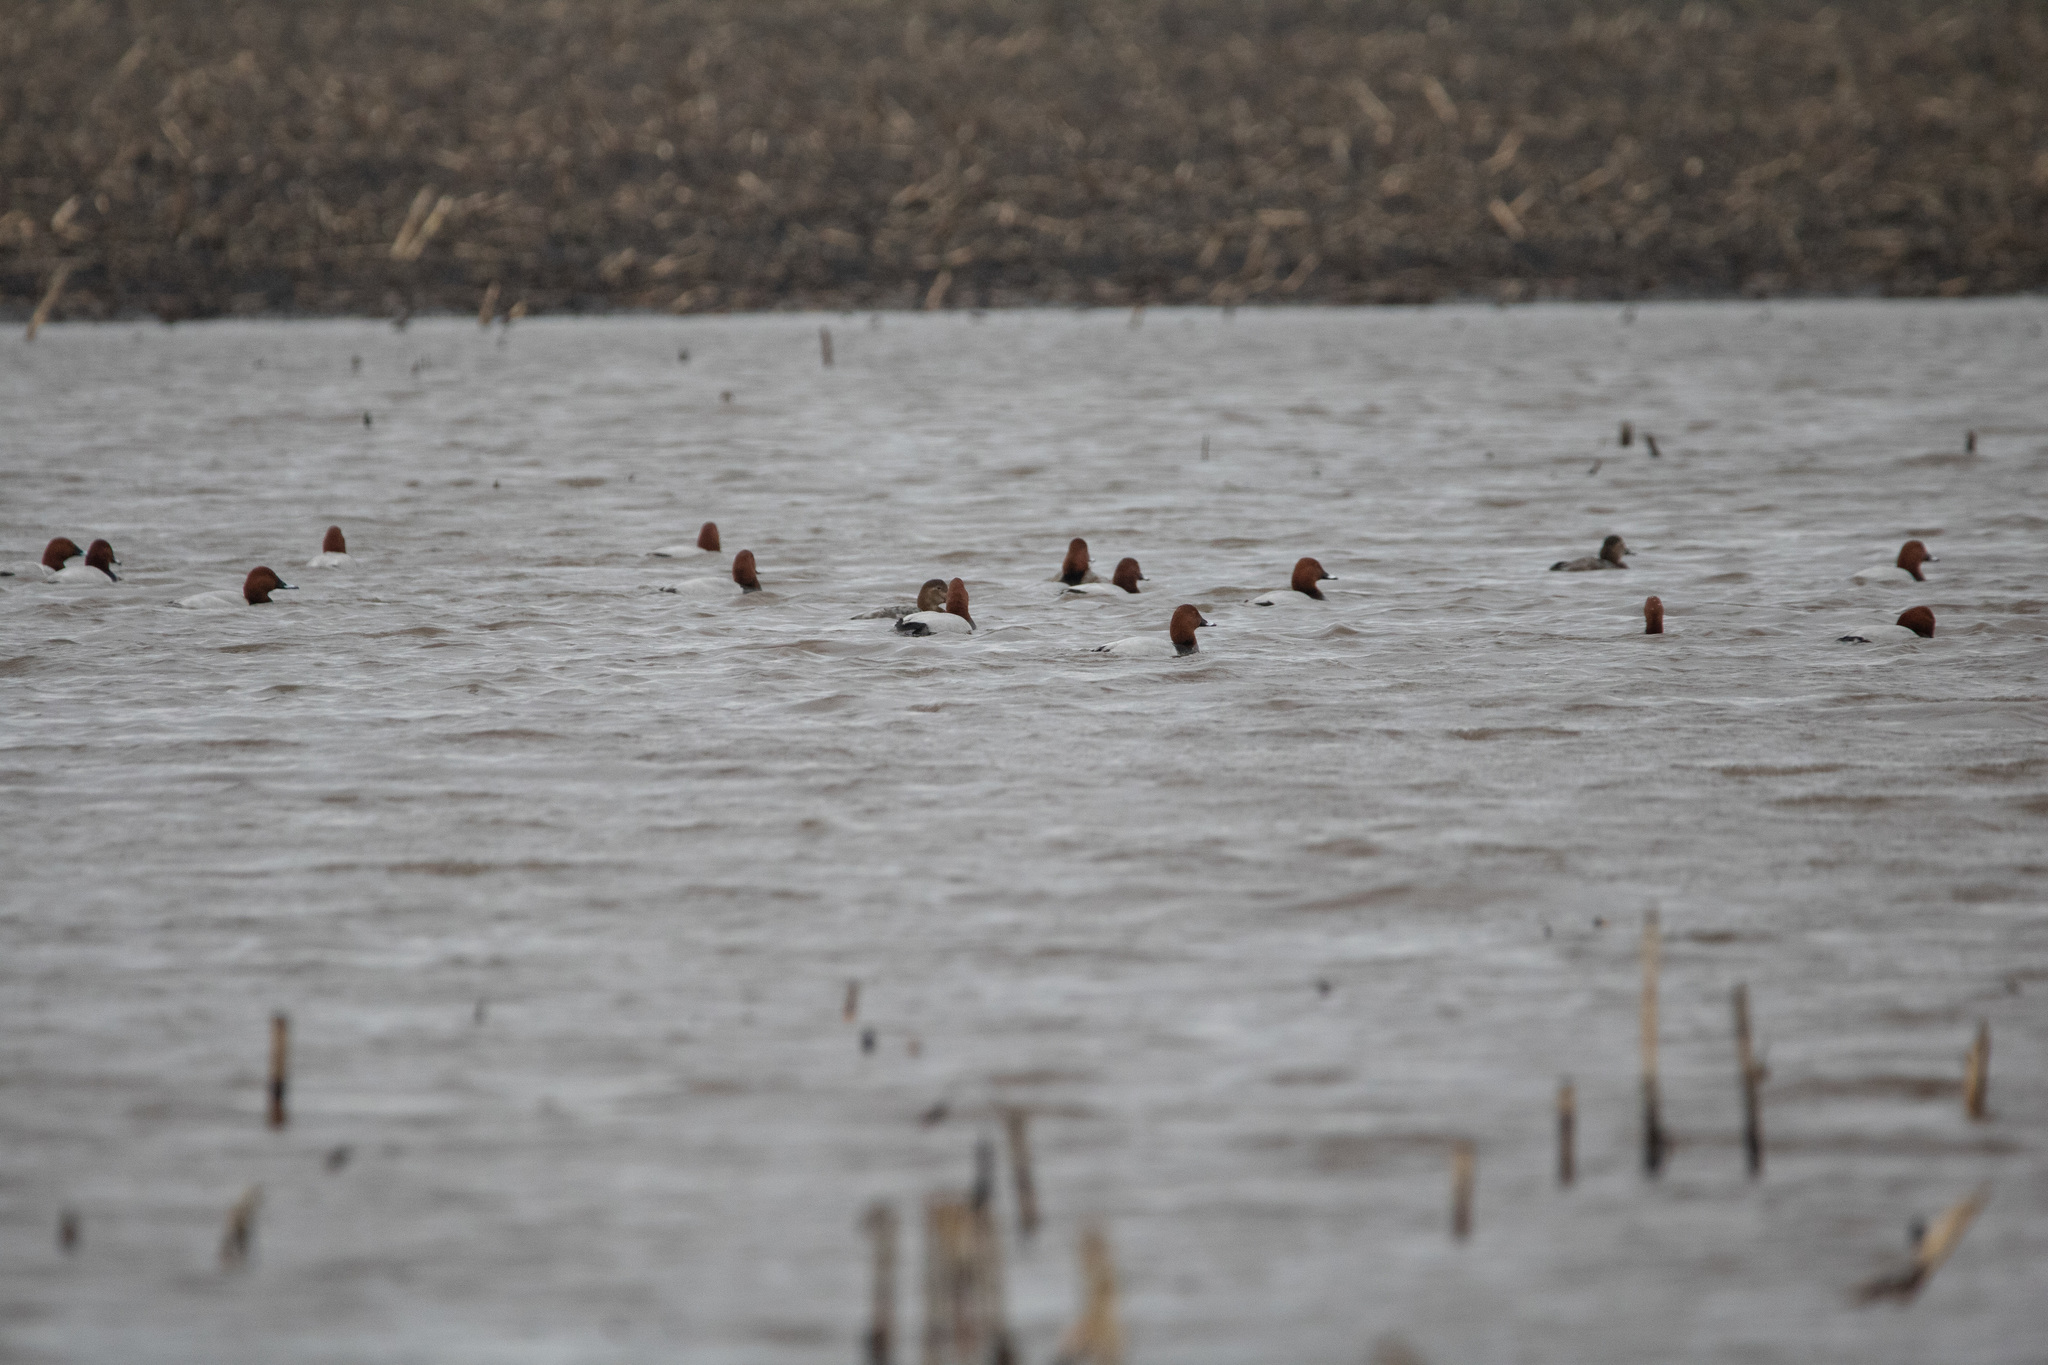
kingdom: Animalia
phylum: Chordata
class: Aves
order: Anseriformes
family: Anatidae
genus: Aythya
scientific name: Aythya ferina
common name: Common pochard
